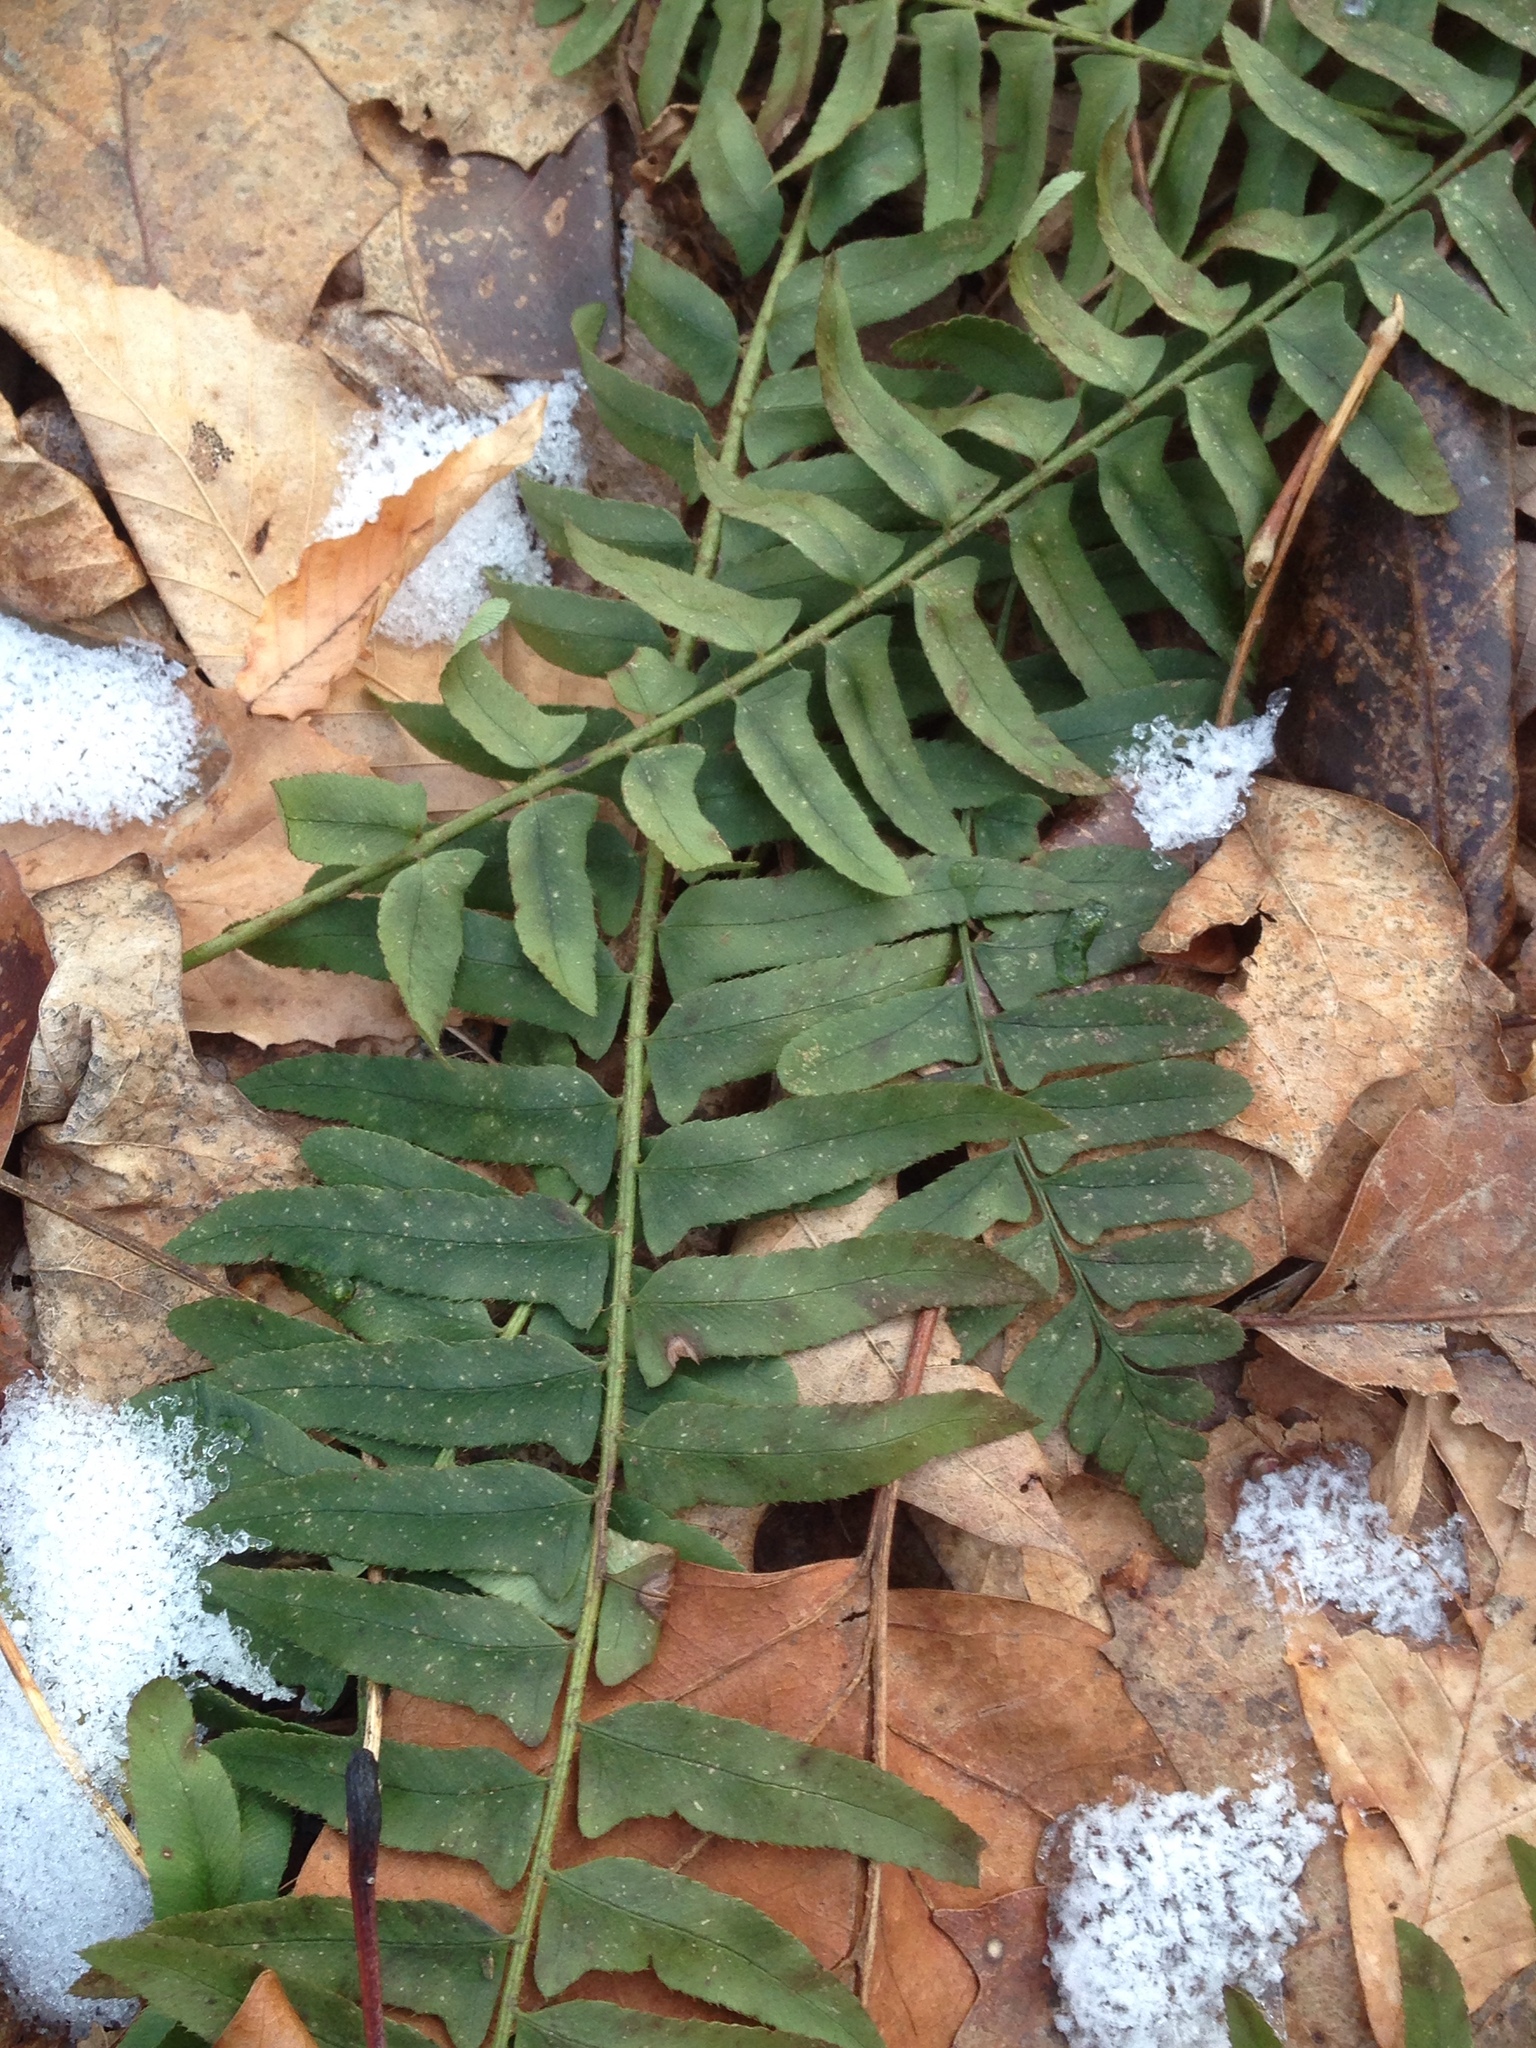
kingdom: Plantae
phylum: Tracheophyta
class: Polypodiopsida
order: Polypodiales
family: Dryopteridaceae
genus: Polystichum
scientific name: Polystichum acrostichoides
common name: Christmas fern
